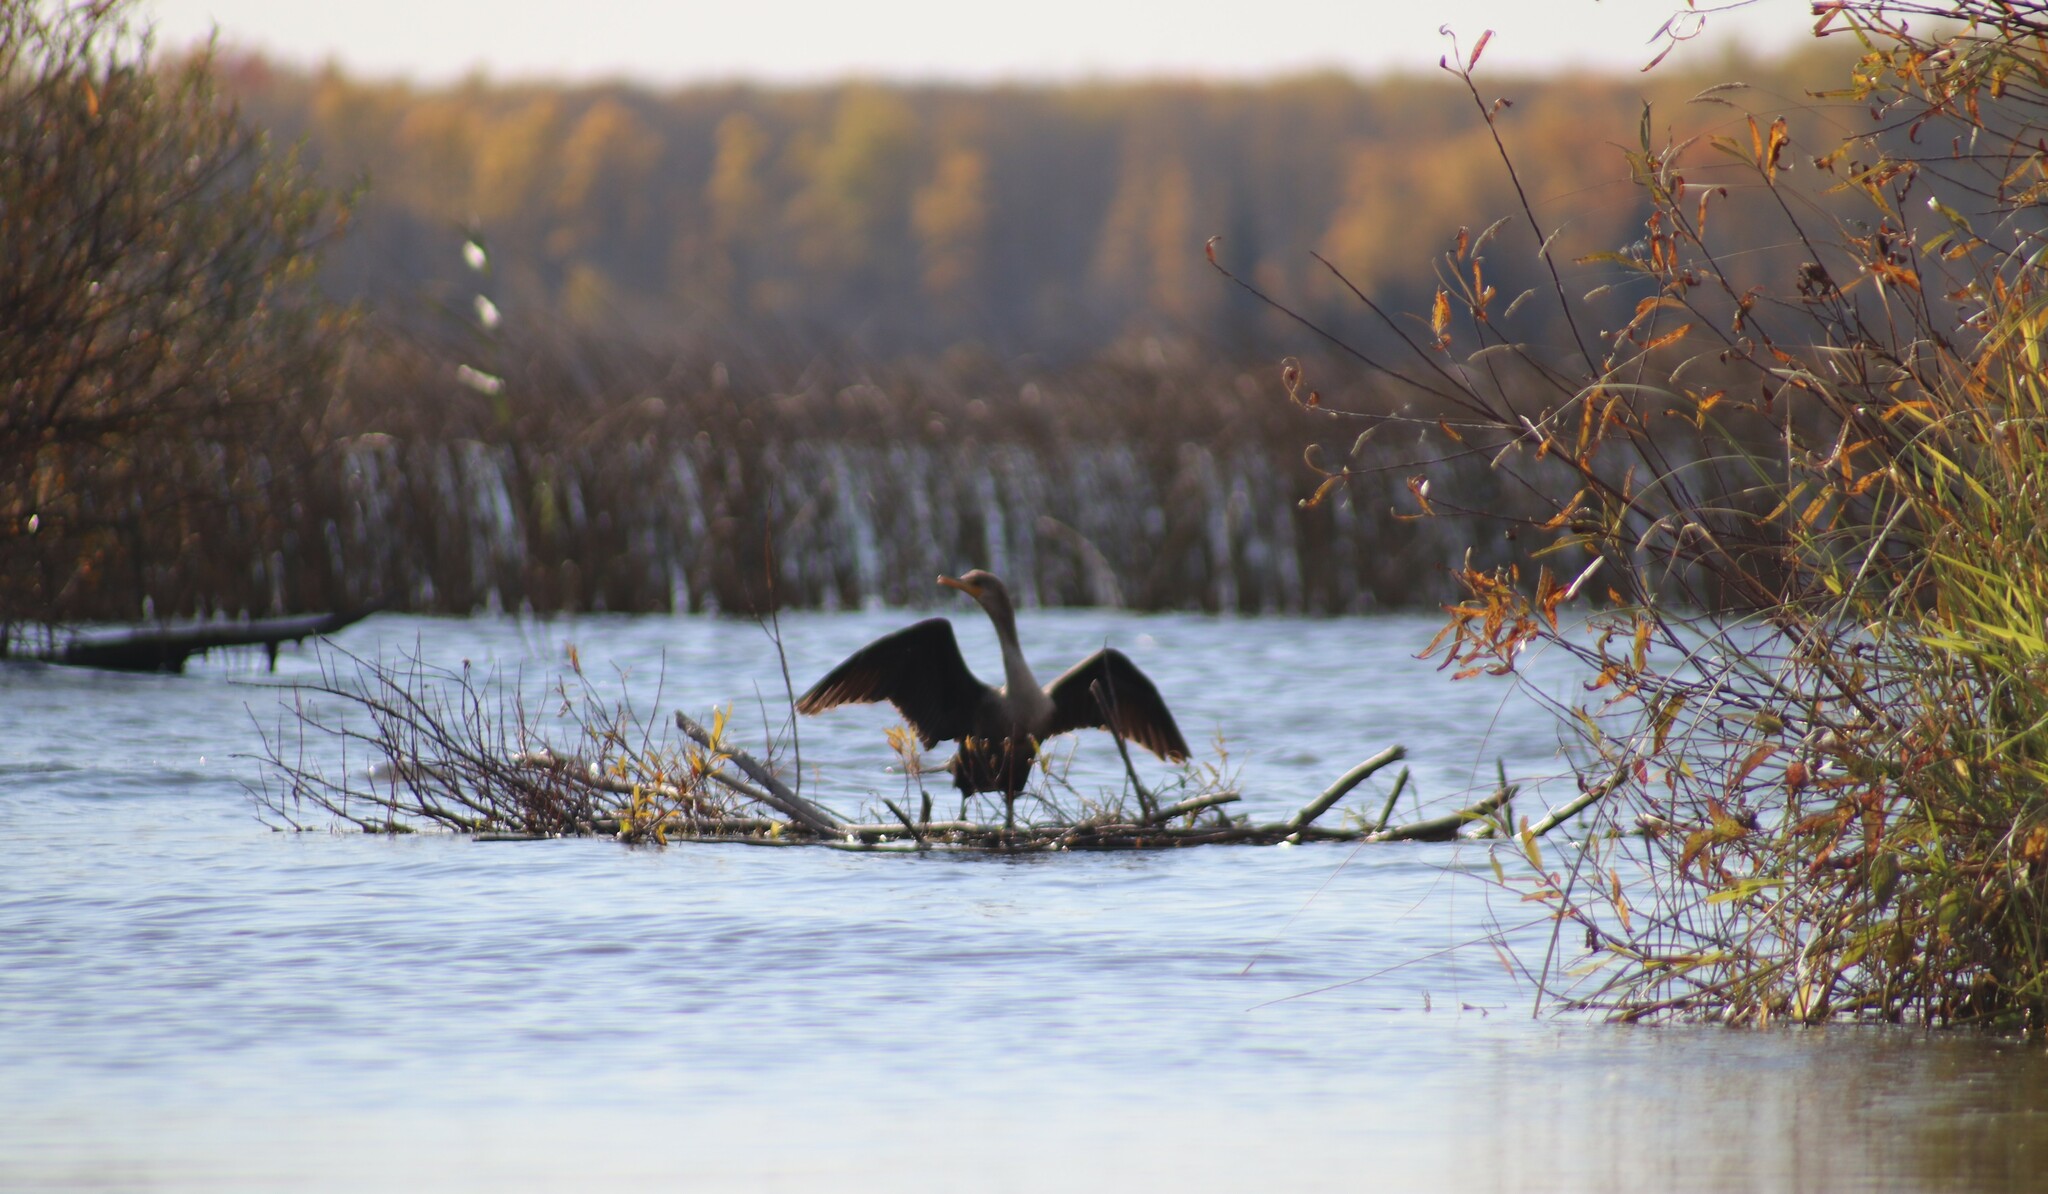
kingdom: Animalia
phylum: Chordata
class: Aves
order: Suliformes
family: Phalacrocoracidae
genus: Phalacrocorax
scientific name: Phalacrocorax auritus
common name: Double-crested cormorant
